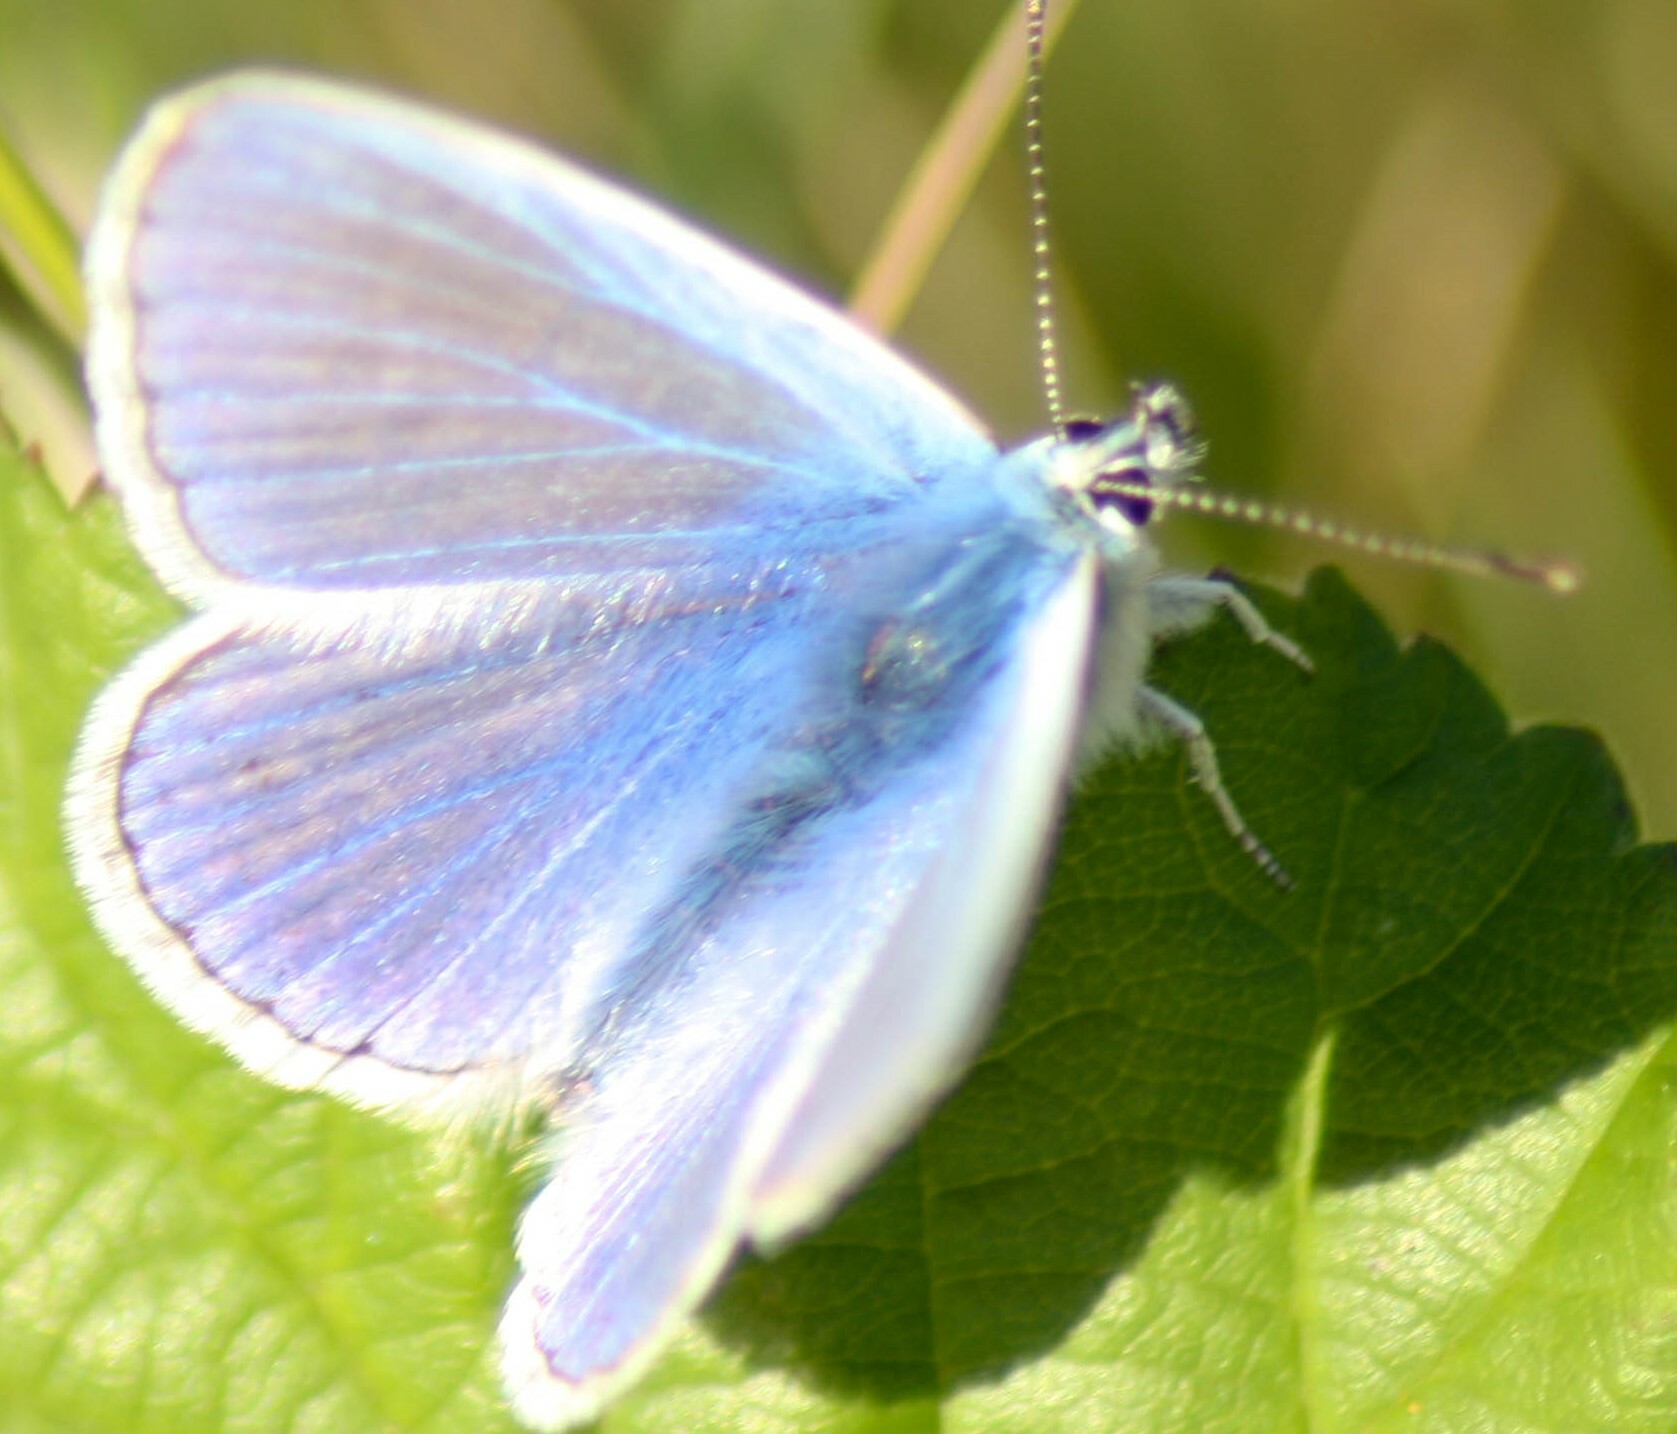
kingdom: Animalia
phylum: Arthropoda
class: Insecta
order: Lepidoptera
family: Lycaenidae
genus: Polyommatus
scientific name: Polyommatus icarus
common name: Common blue
